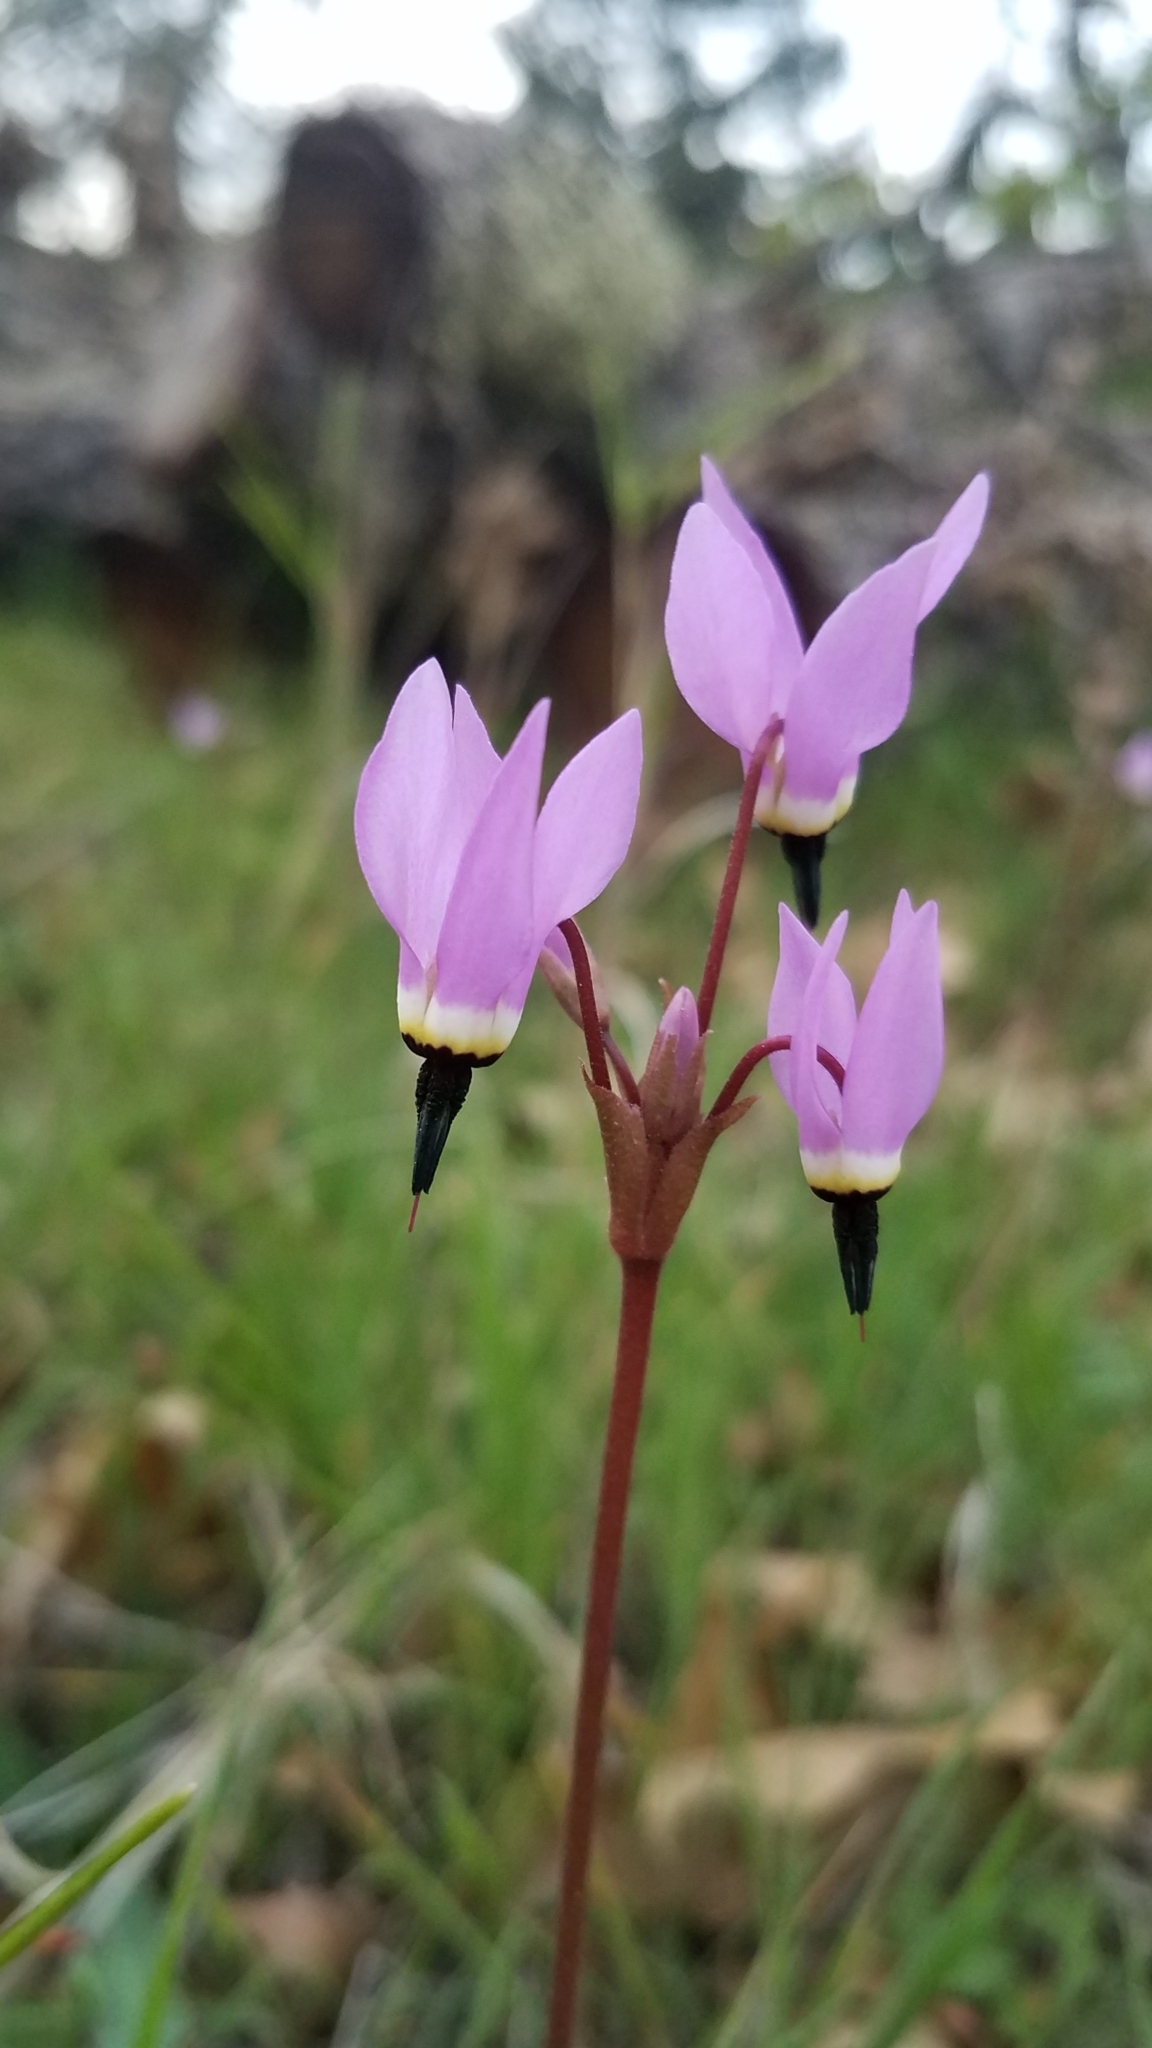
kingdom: Plantae
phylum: Tracheophyta
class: Magnoliopsida
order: Ericales
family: Primulaceae
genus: Dodecatheon
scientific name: Dodecatheon hendersonii
